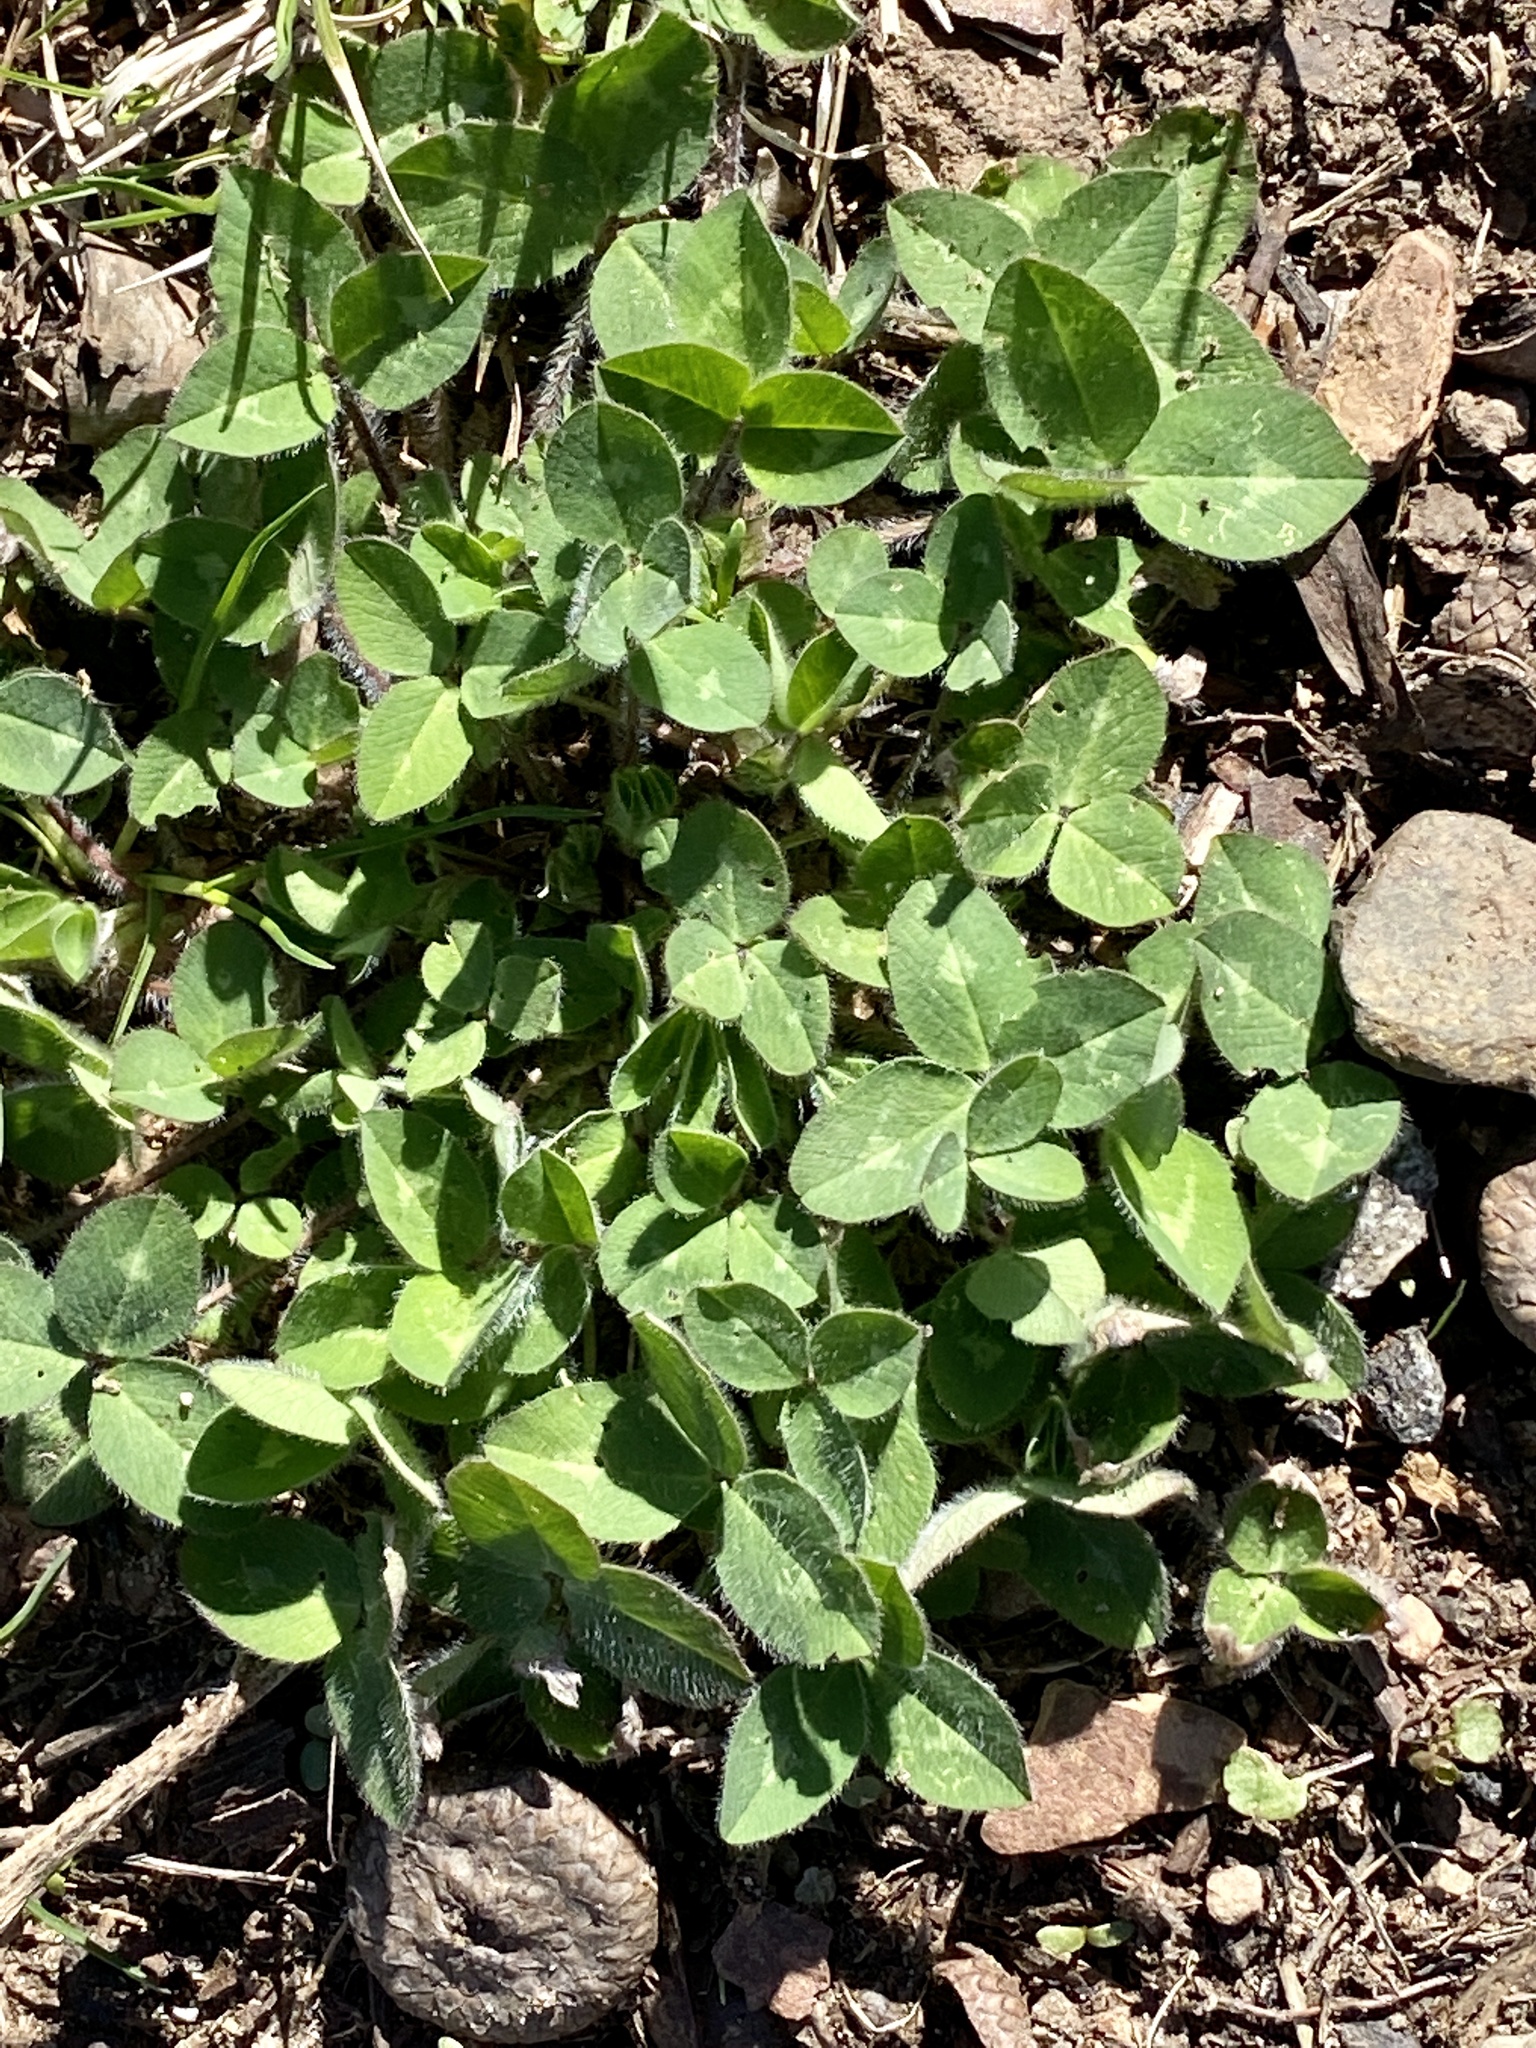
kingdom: Plantae
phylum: Tracheophyta
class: Magnoliopsida
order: Fabales
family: Fabaceae
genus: Trifolium
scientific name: Trifolium pratense
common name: Red clover
